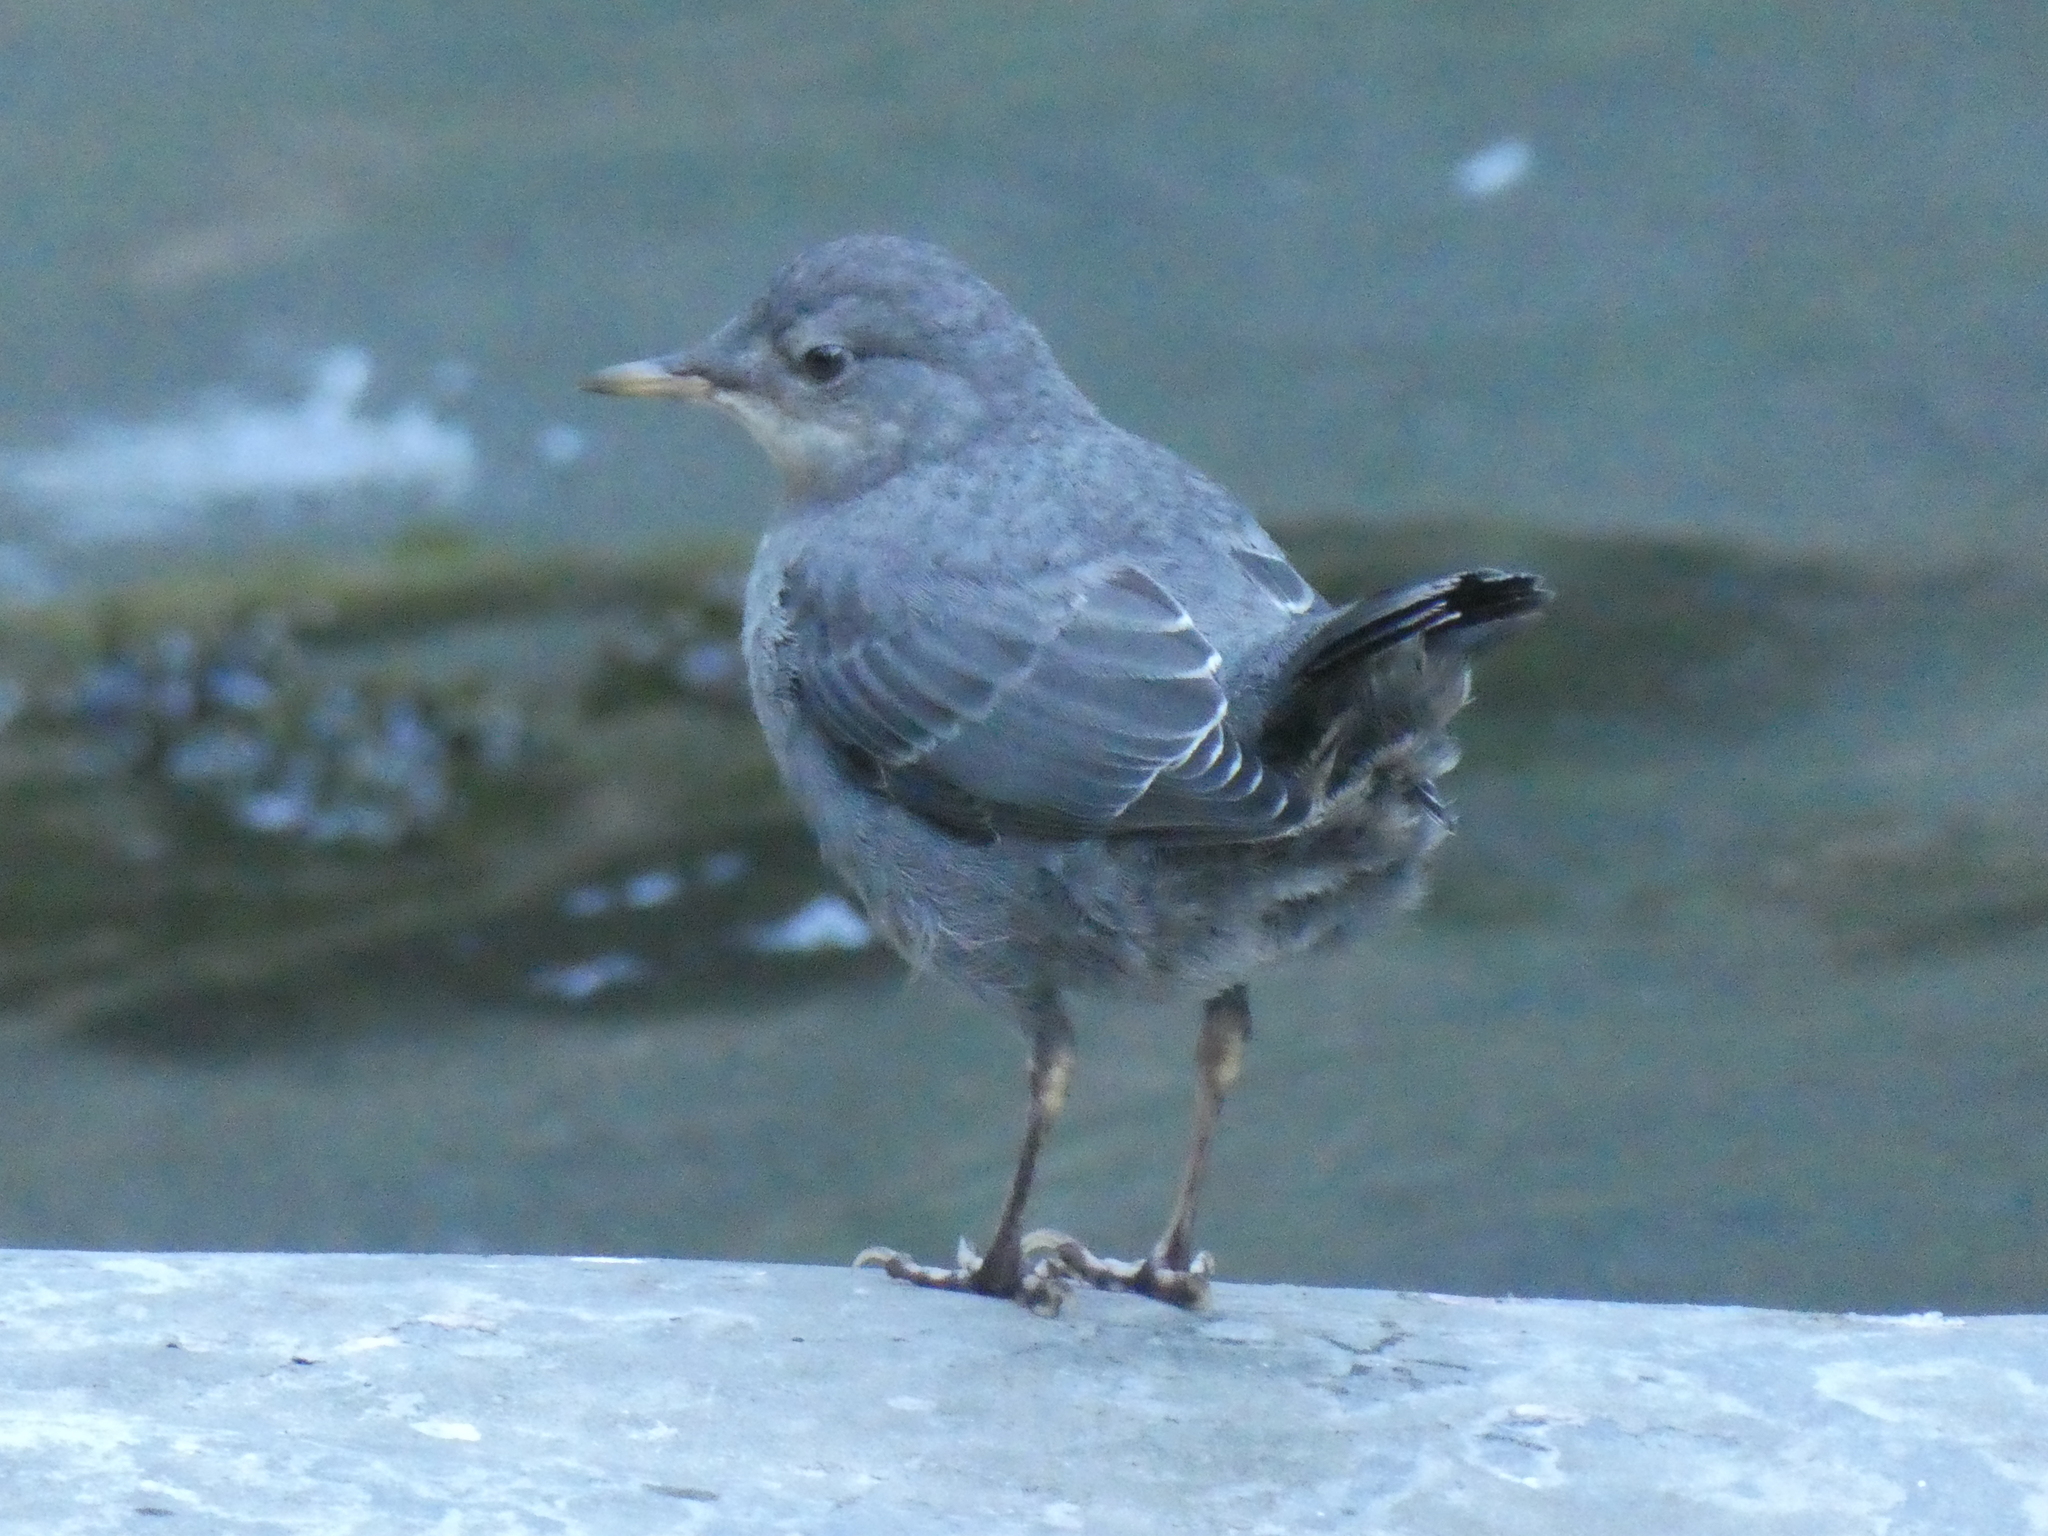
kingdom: Animalia
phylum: Chordata
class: Aves
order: Passeriformes
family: Cinclidae
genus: Cinclus
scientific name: Cinclus mexicanus
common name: American dipper
